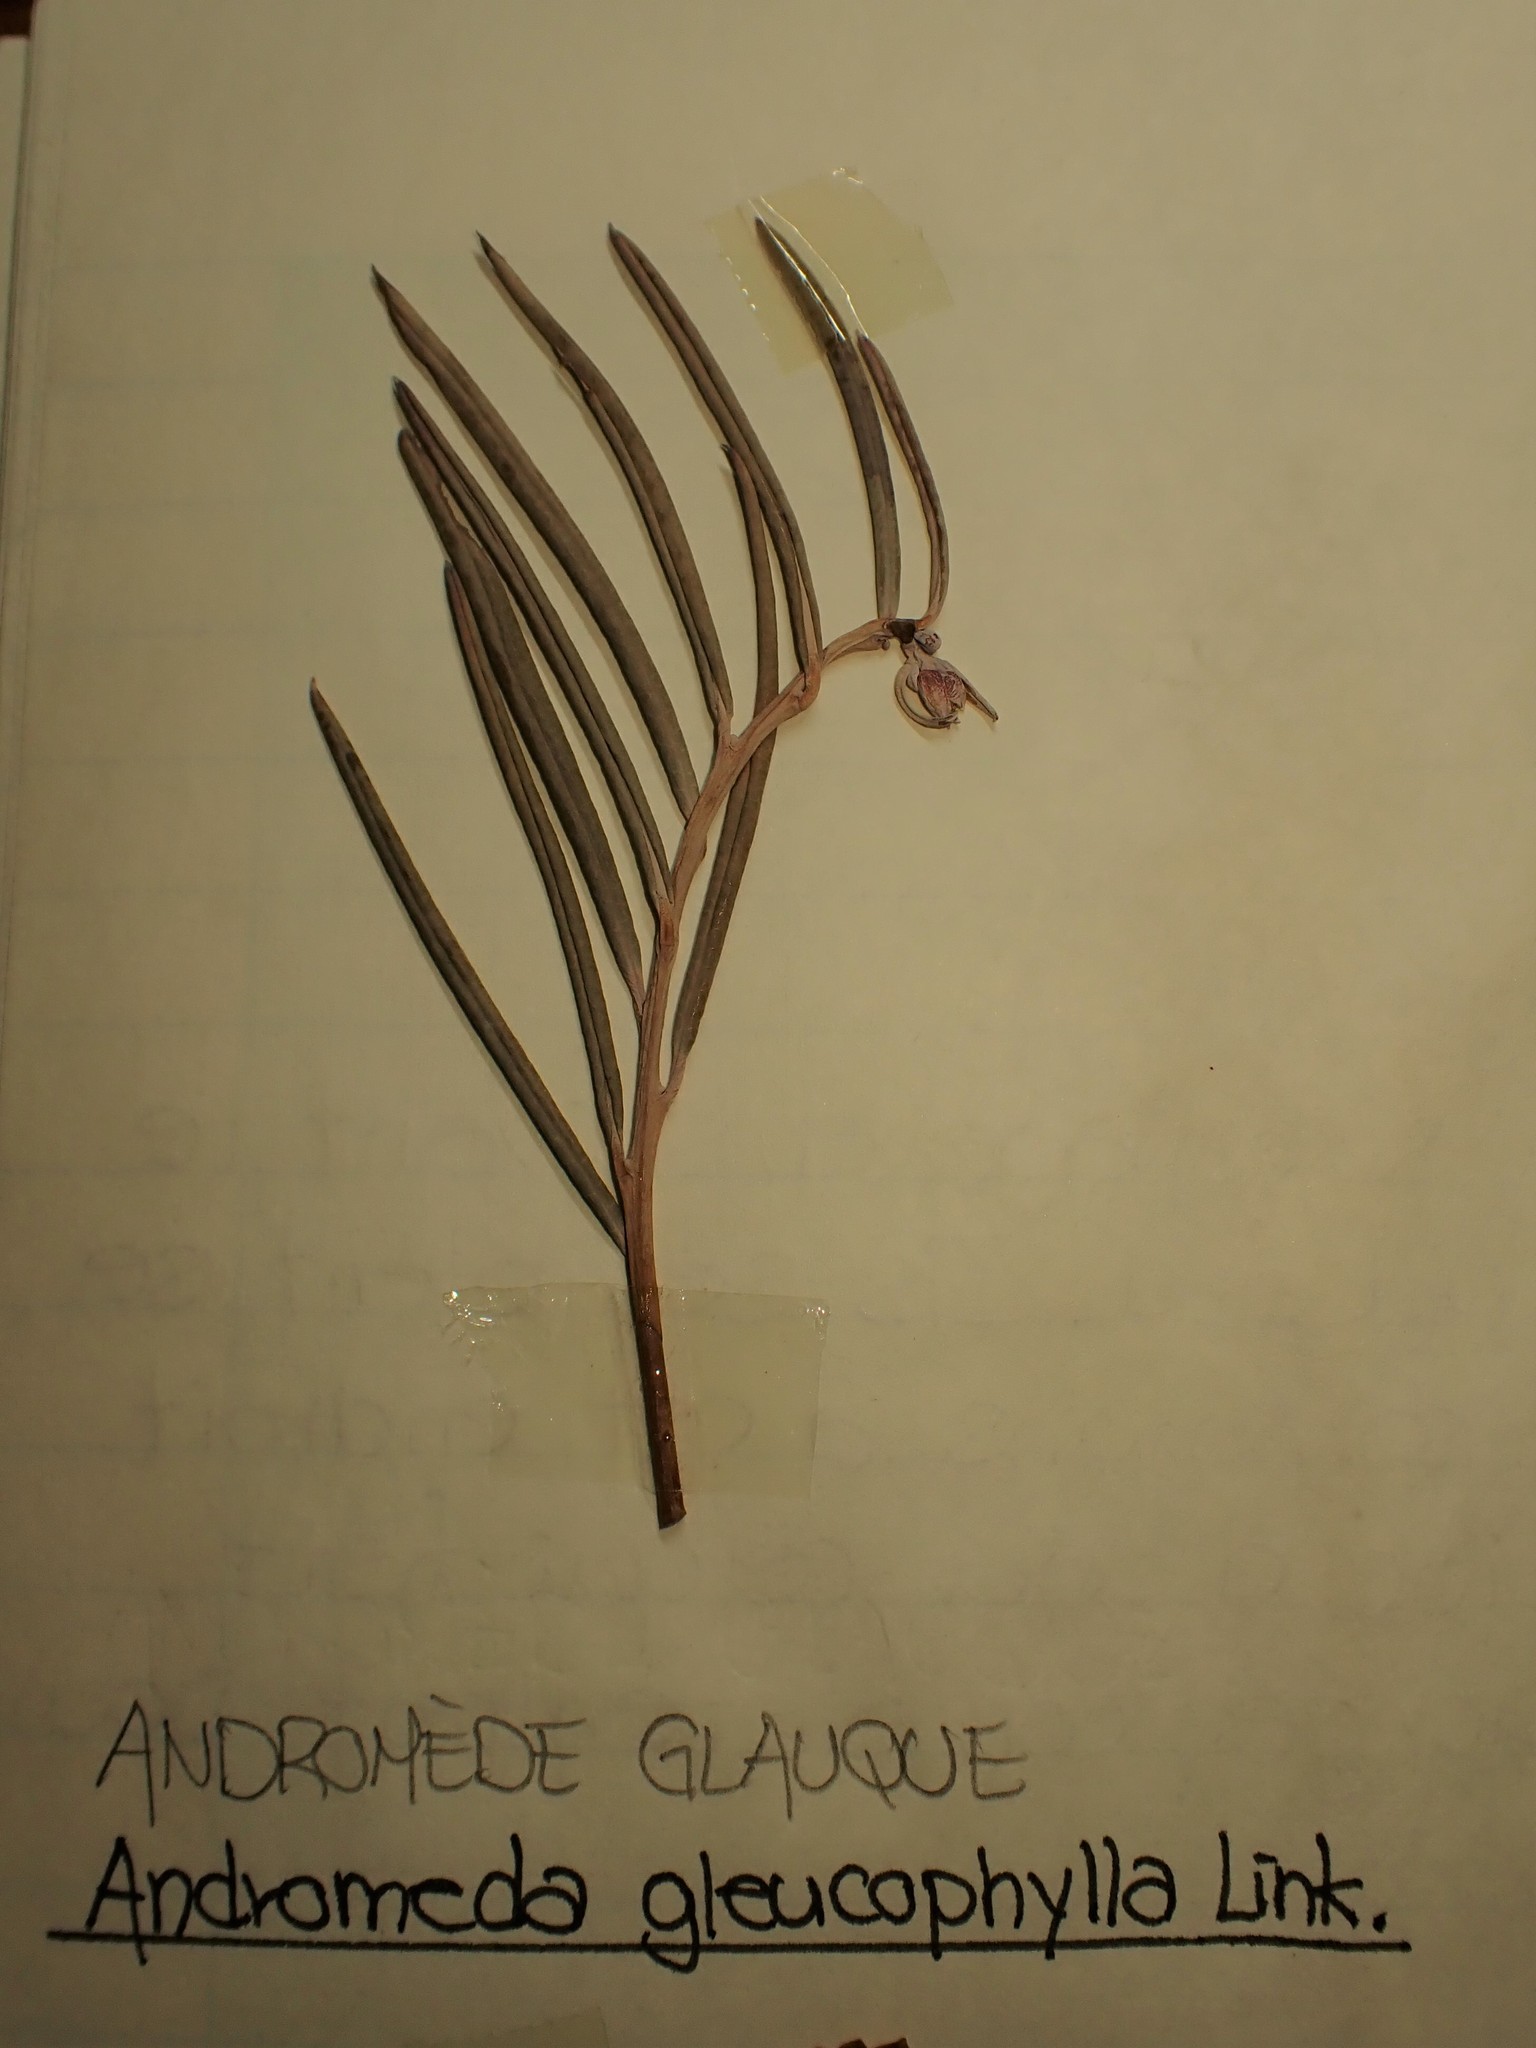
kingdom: Plantae
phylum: Tracheophyta
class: Magnoliopsida
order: Ericales
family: Ericaceae
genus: Andromeda
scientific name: Andromeda polifolia
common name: Bog-rosemary
